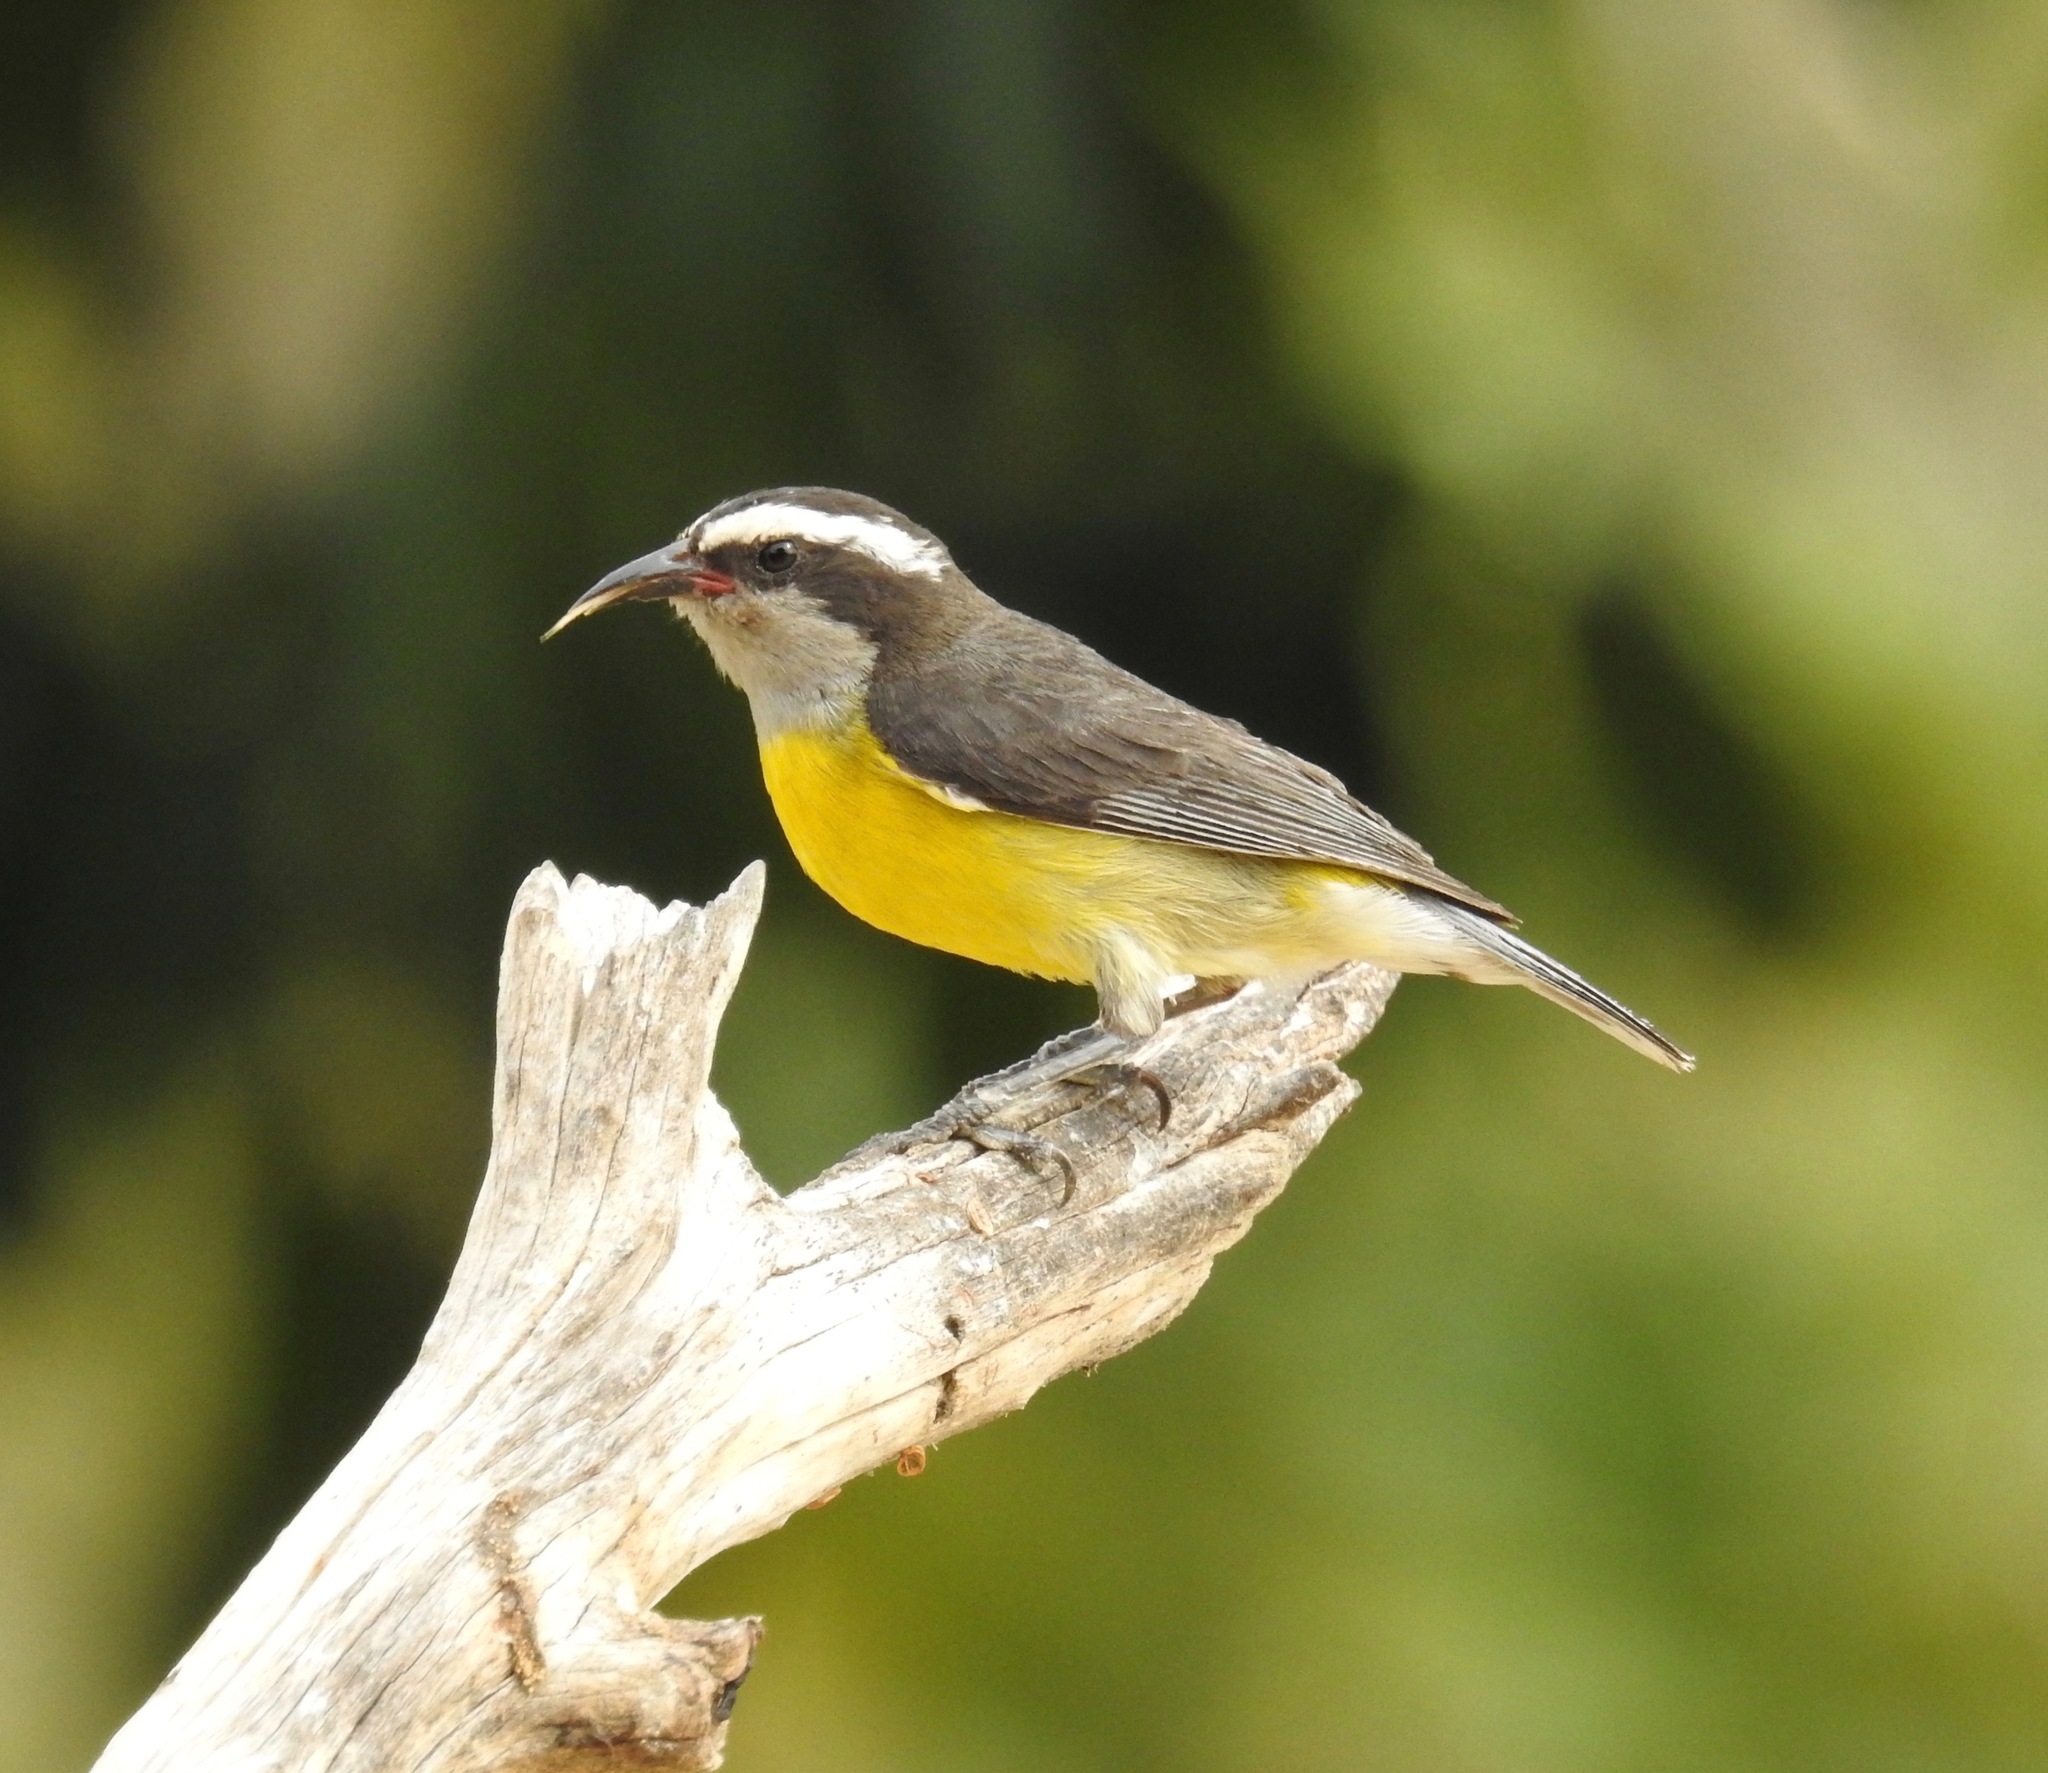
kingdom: Animalia
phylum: Chordata
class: Aves
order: Passeriformes
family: Thraupidae
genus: Coereba
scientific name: Coereba flaveola
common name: Bananaquit
